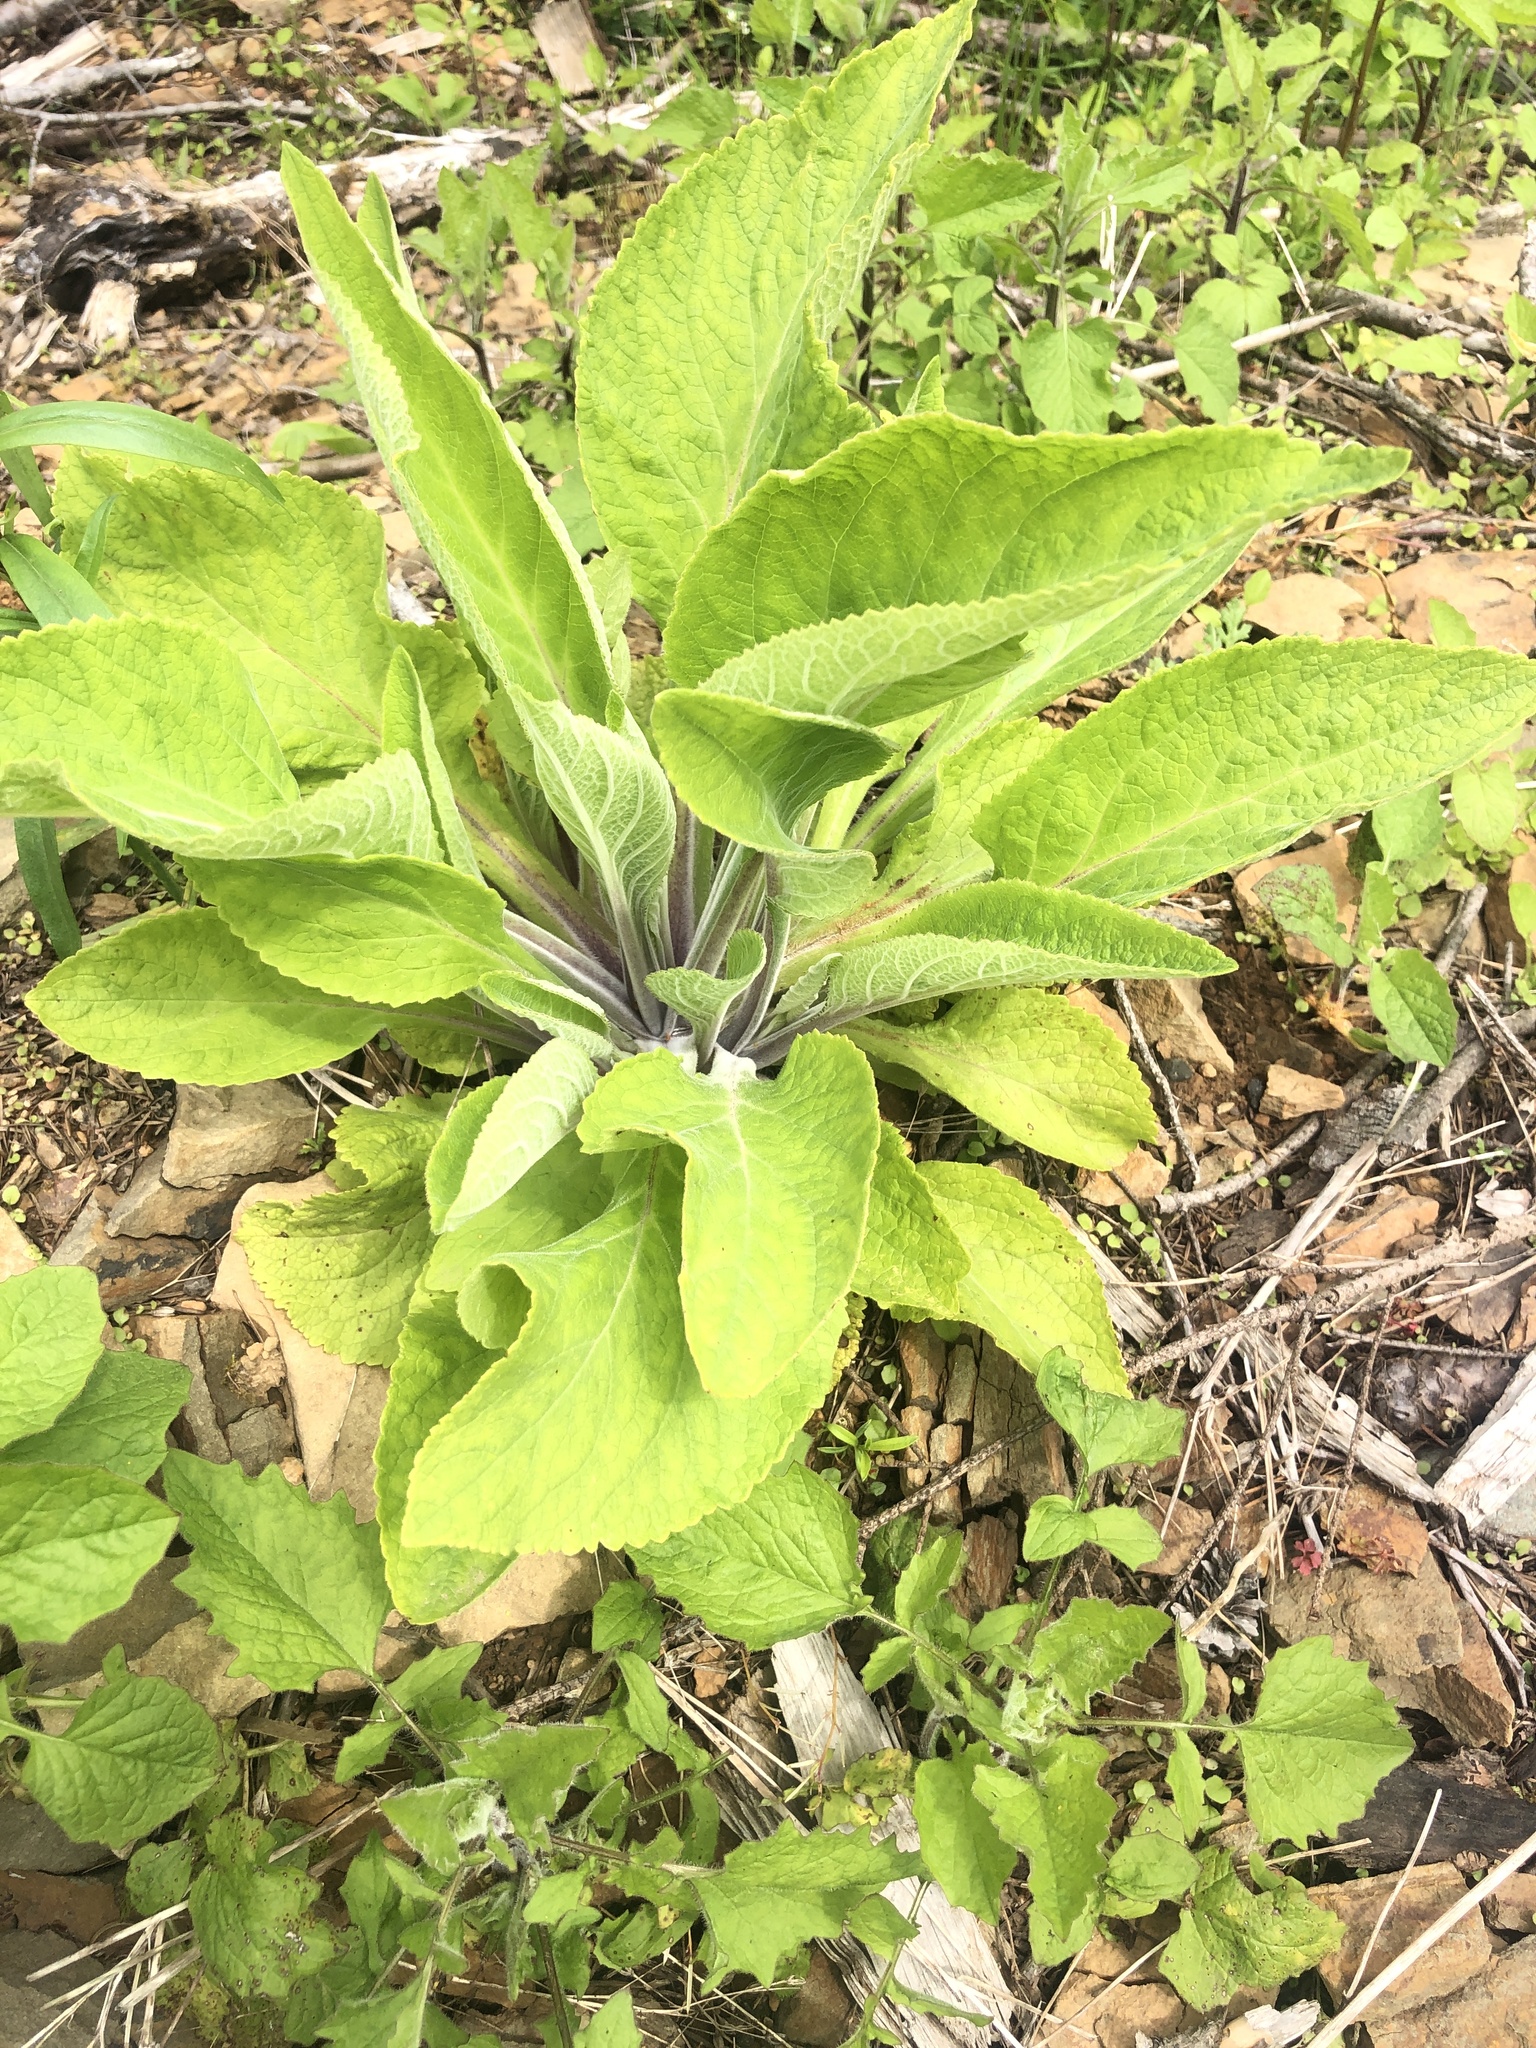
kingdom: Plantae
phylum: Tracheophyta
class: Magnoliopsida
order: Lamiales
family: Plantaginaceae
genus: Digitalis
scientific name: Digitalis purpurea
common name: Foxglove
